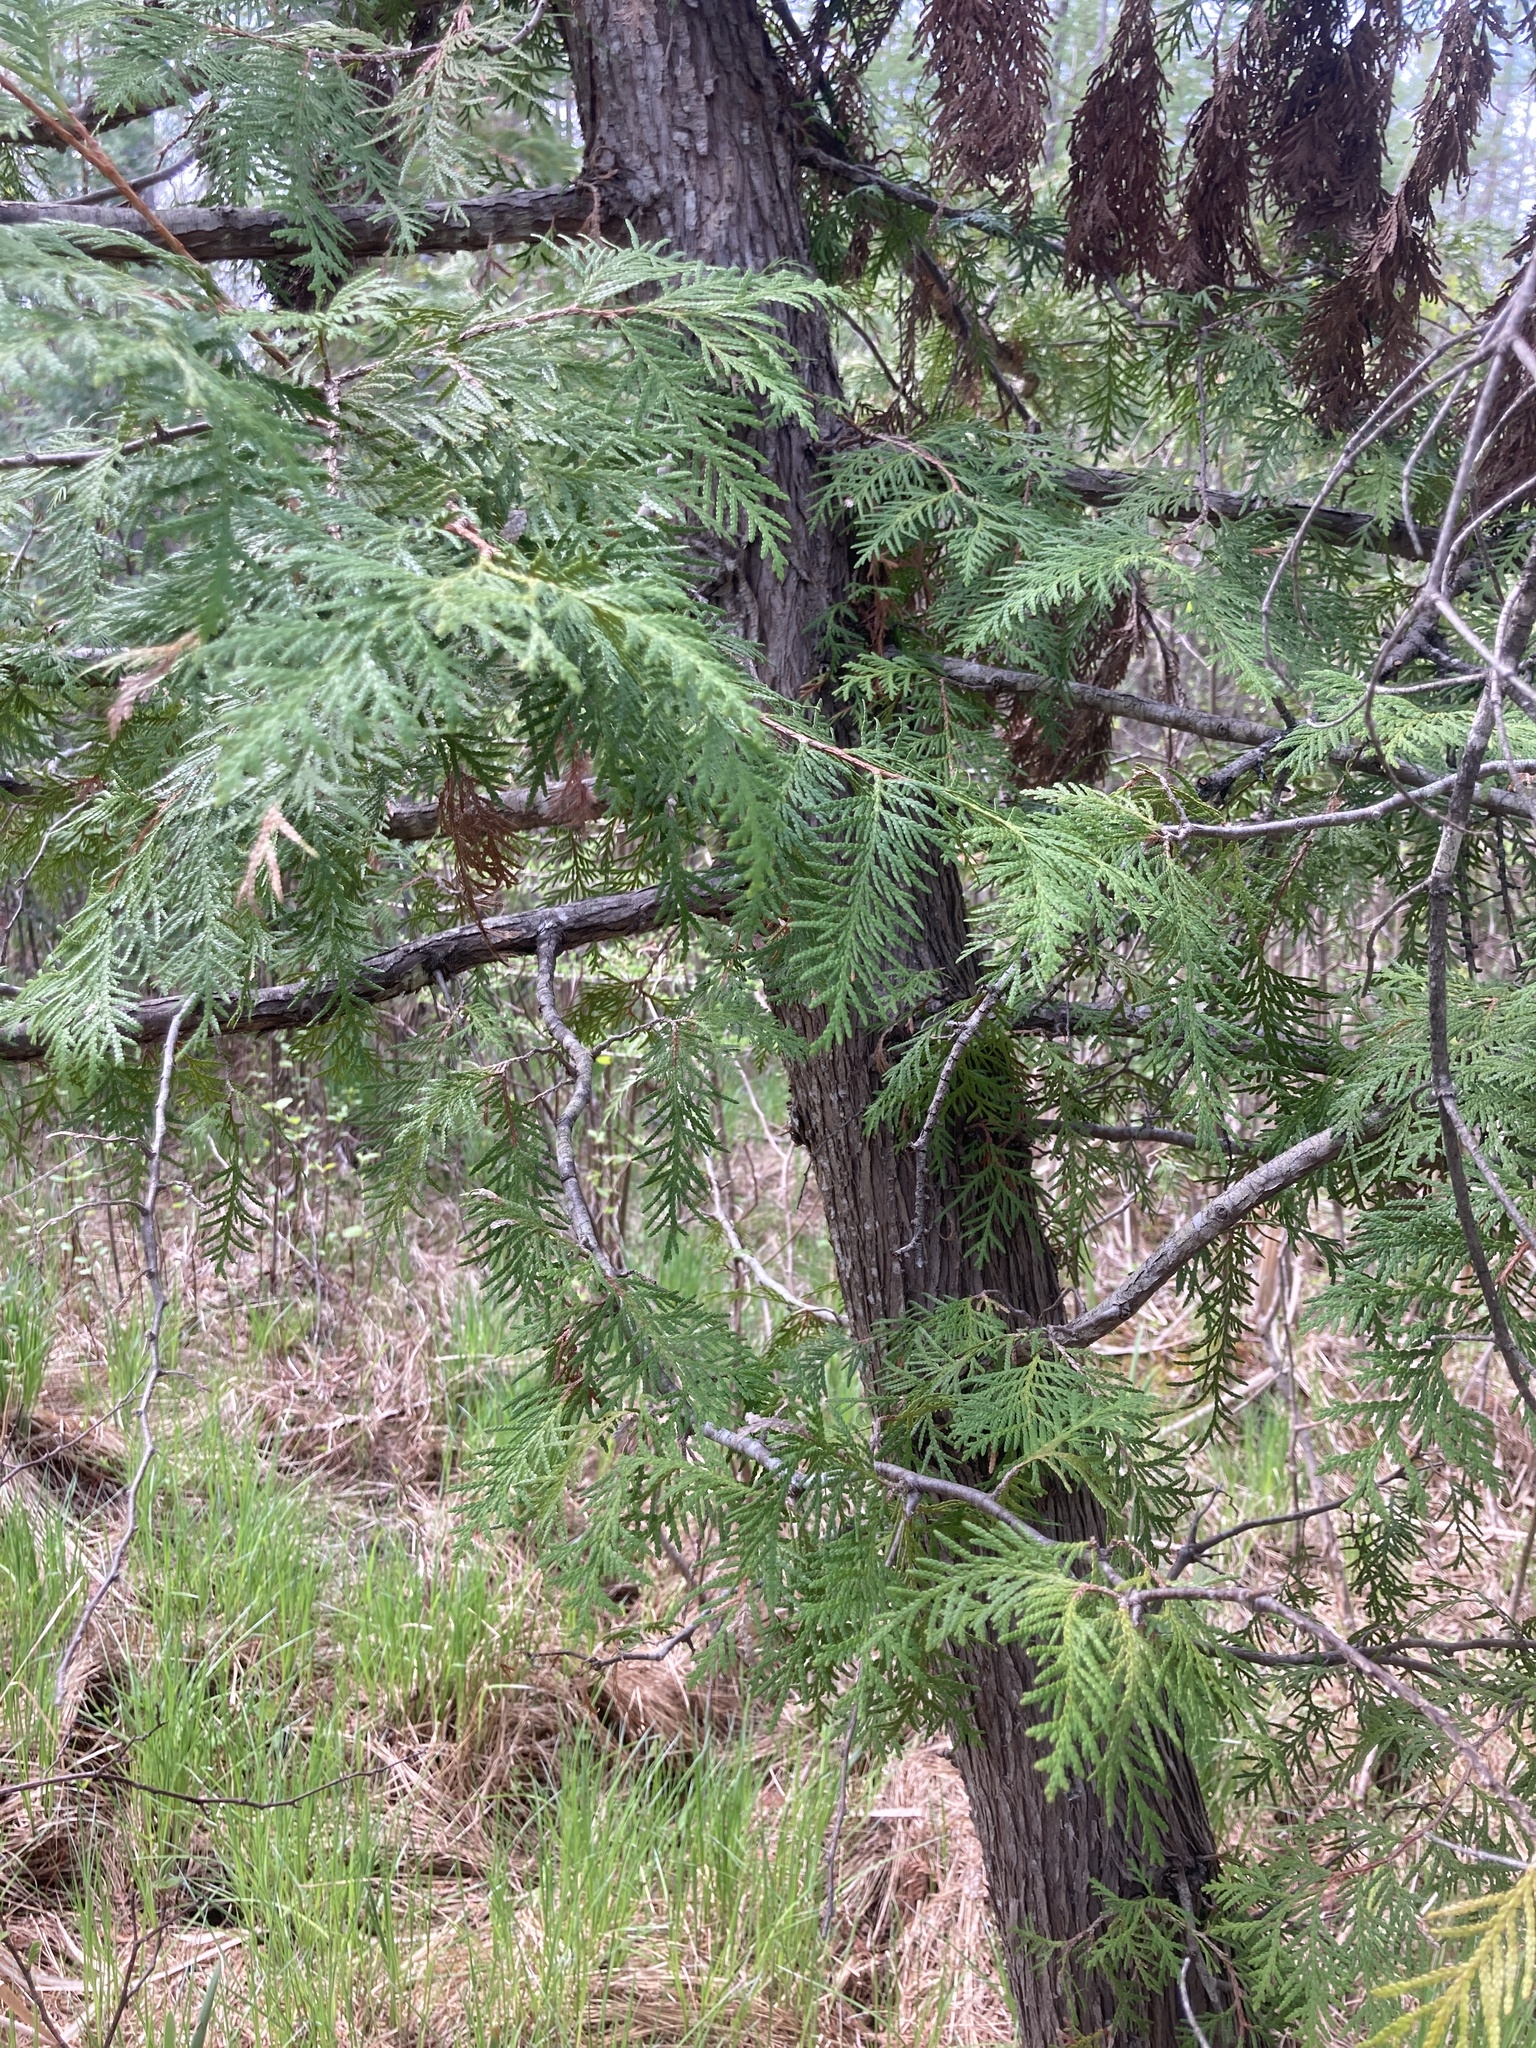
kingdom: Plantae
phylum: Tracheophyta
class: Pinopsida
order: Pinales
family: Cupressaceae
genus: Thuja
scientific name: Thuja occidentalis
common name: Northern white-cedar
